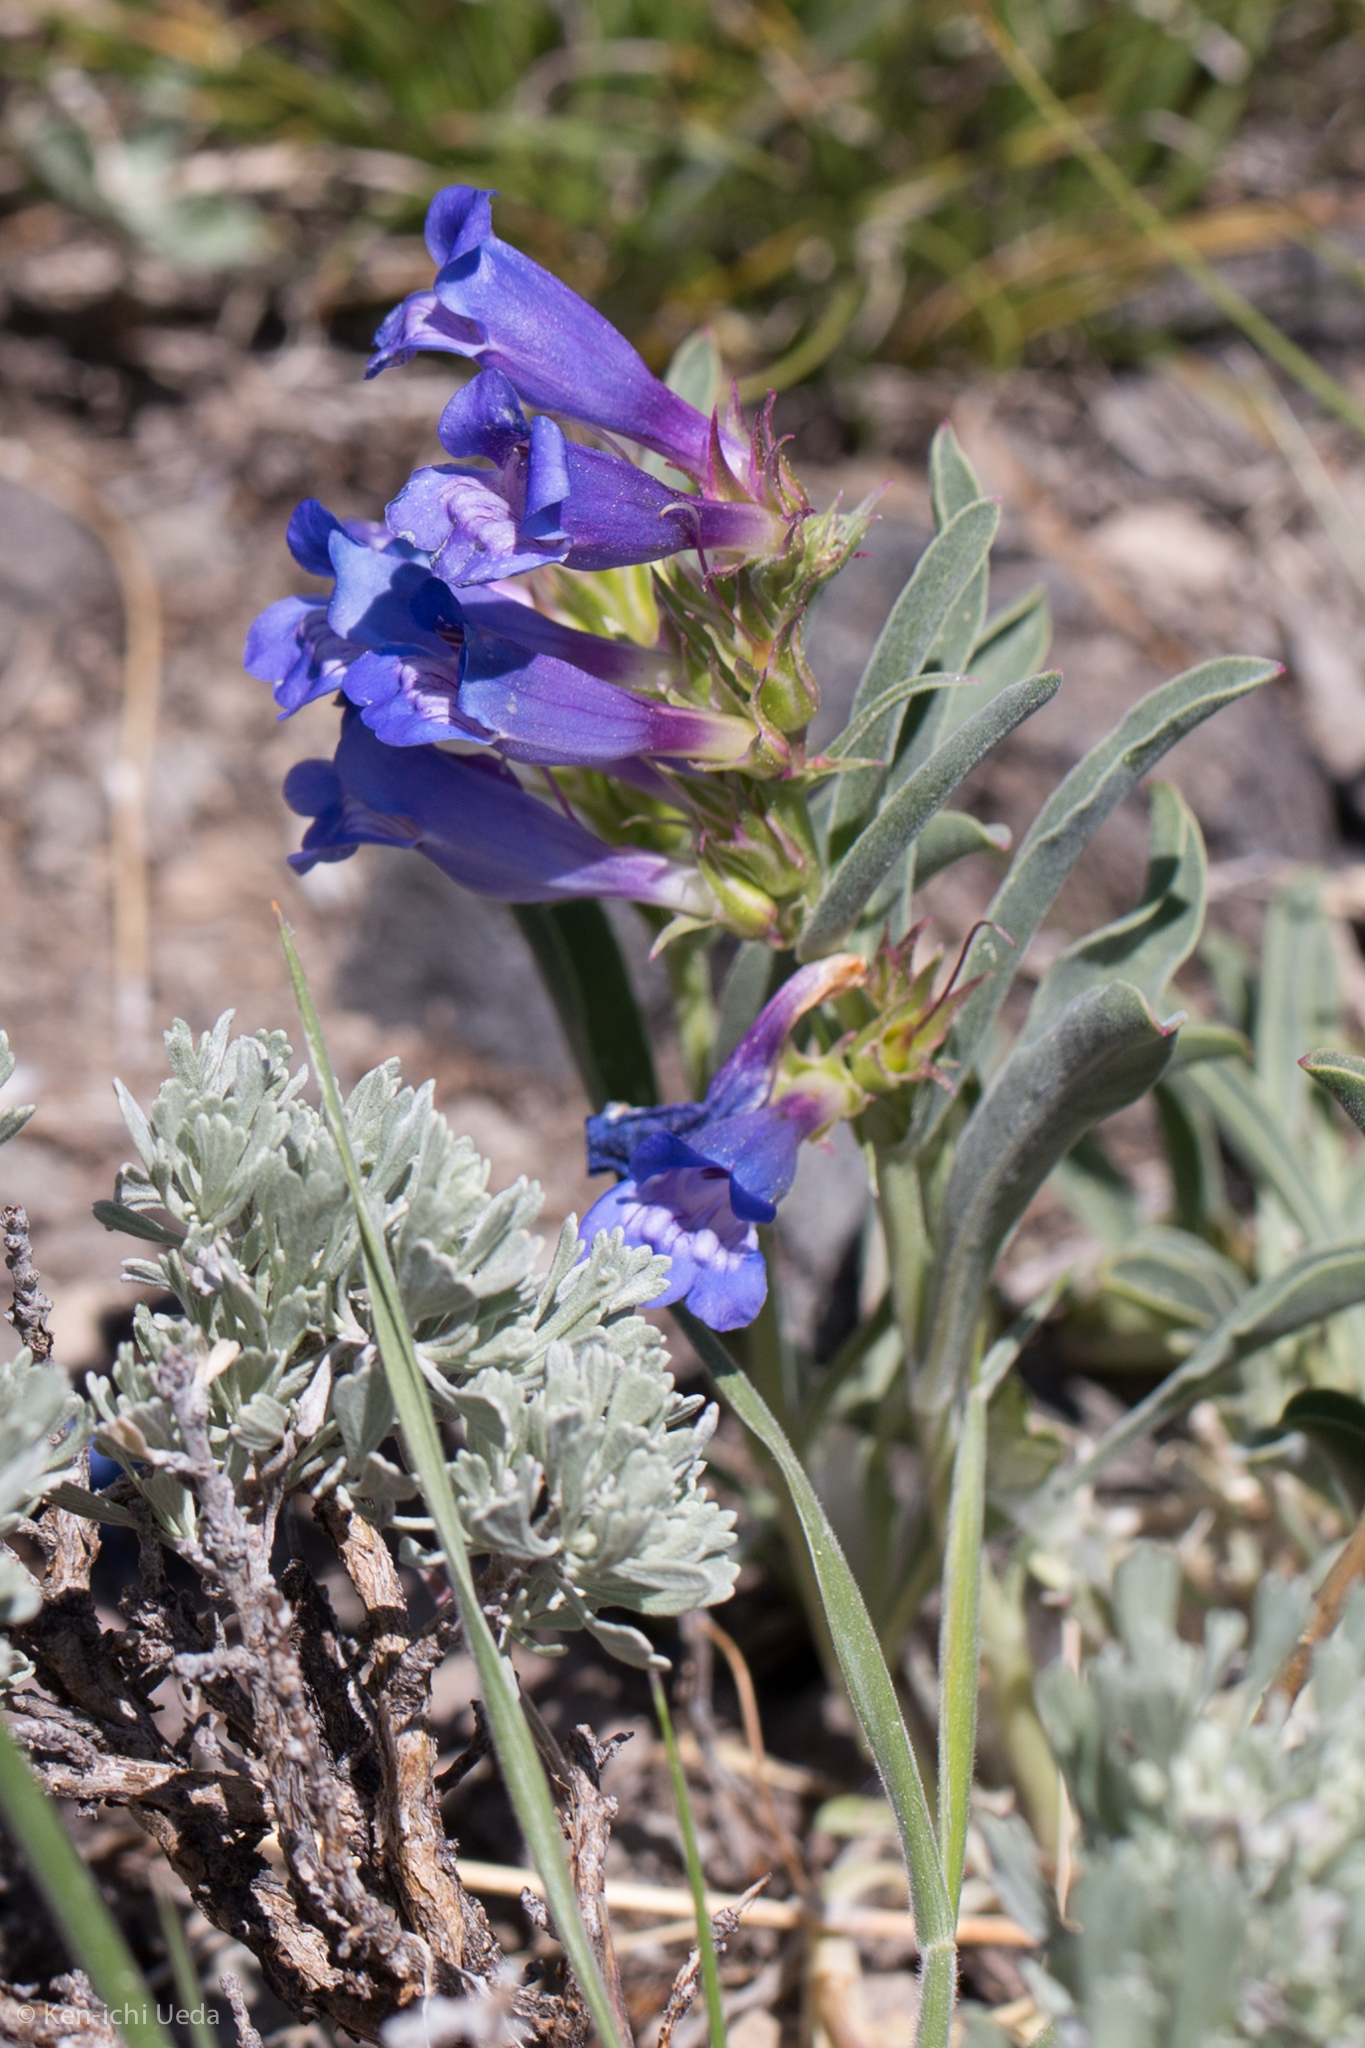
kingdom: Plantae
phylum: Tracheophyta
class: Magnoliopsida
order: Lamiales
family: Plantaginaceae
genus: Penstemon
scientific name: Penstemon speciosus
